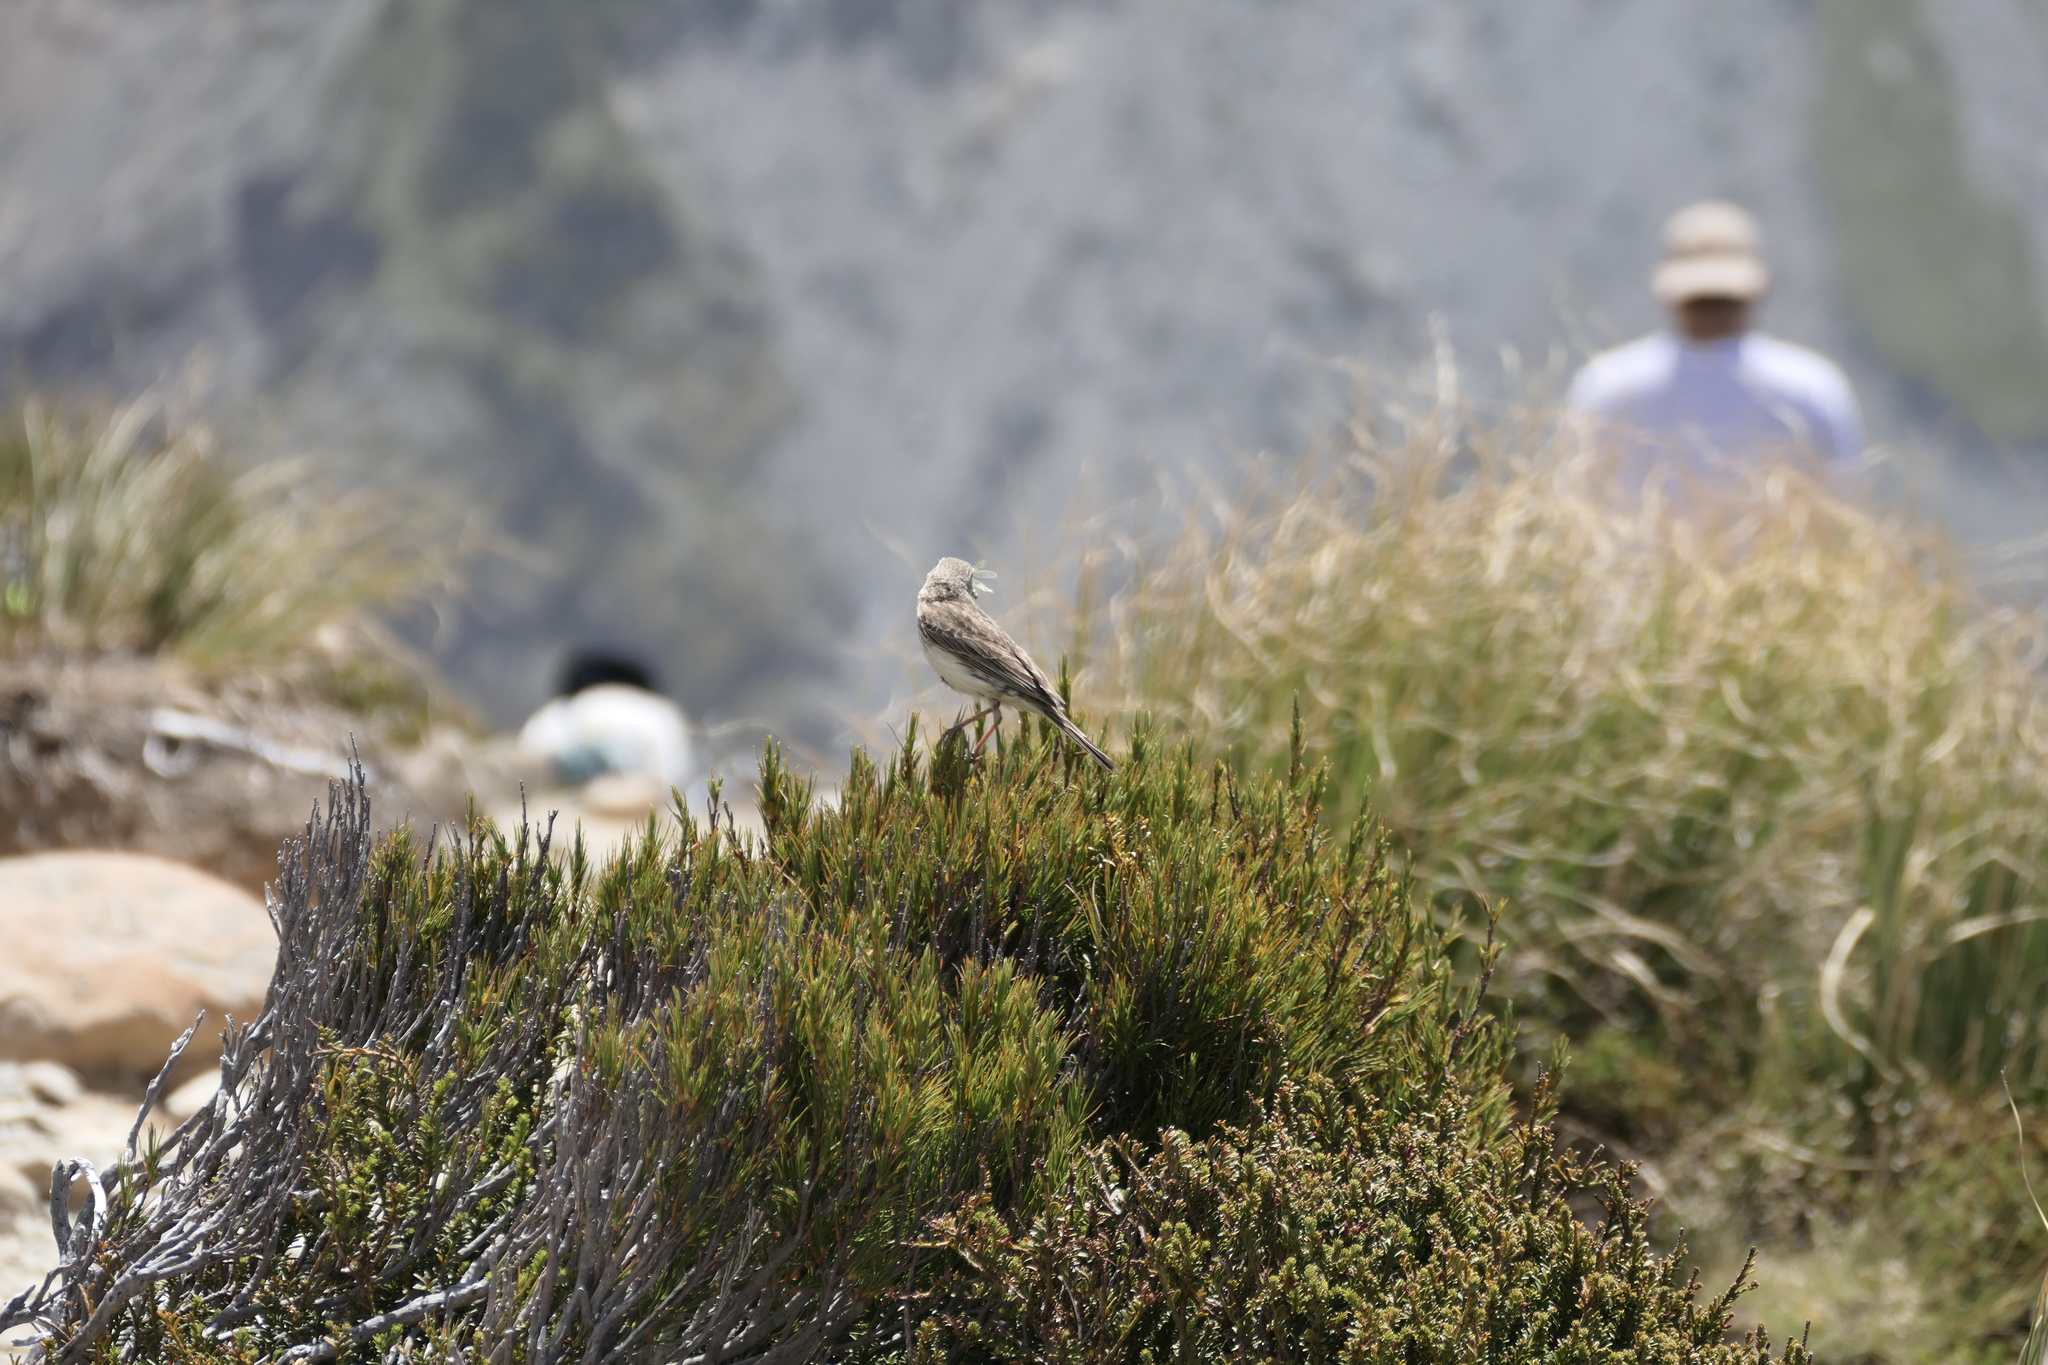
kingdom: Animalia
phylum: Chordata
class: Aves
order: Passeriformes
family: Motacillidae
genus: Anthus
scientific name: Anthus novaeseelandiae
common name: New zealand pipit
